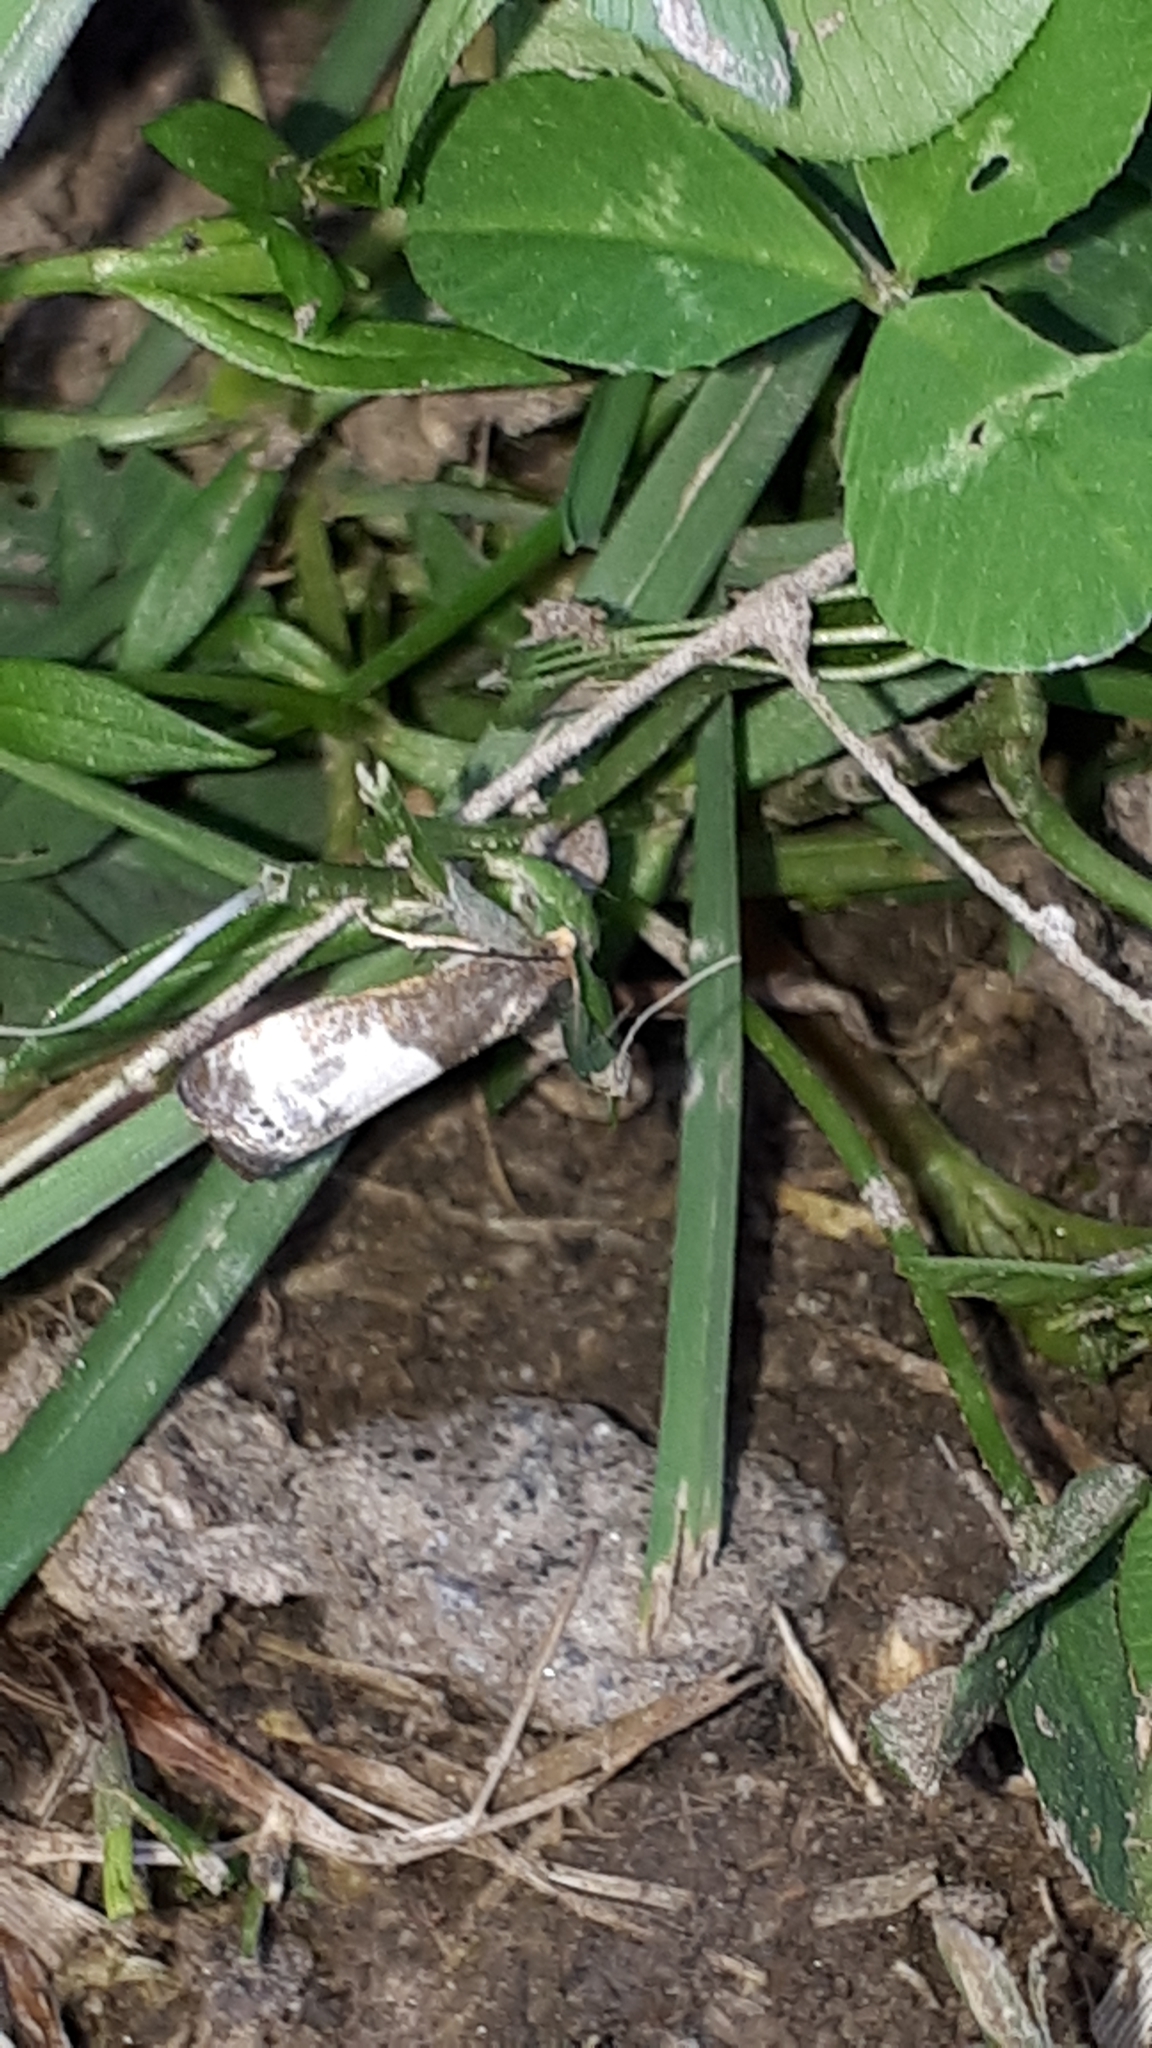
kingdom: Animalia
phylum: Arthropoda
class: Insecta
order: Lepidoptera
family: Tortricidae
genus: Notocelia
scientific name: Notocelia cynosbatella
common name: Yellow-faced bell moth
